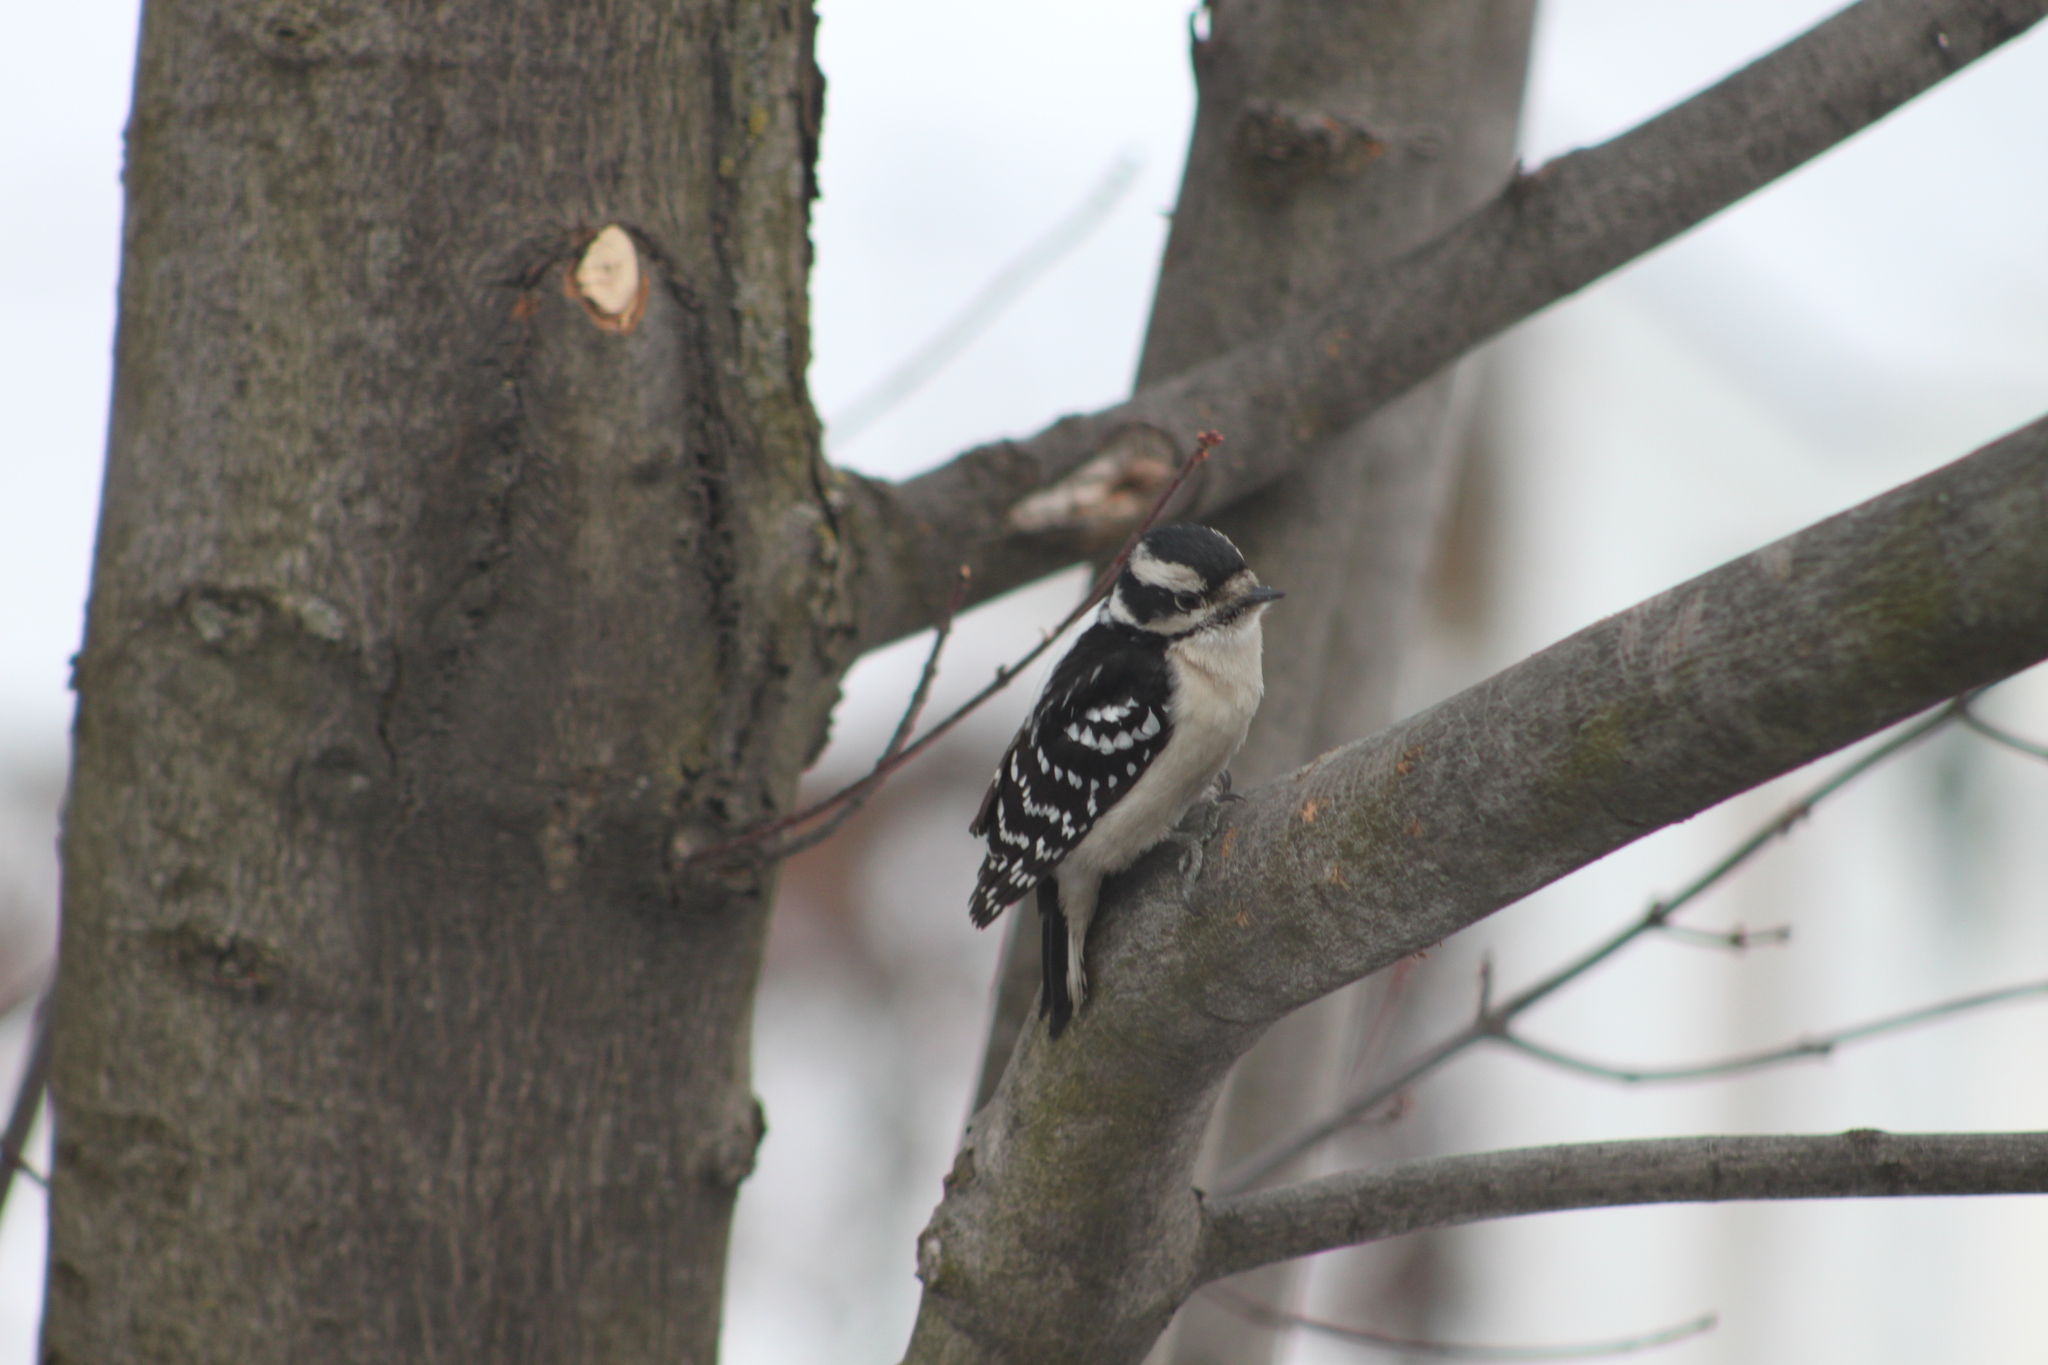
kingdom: Animalia
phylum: Chordata
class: Aves
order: Piciformes
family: Picidae
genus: Dryobates
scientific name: Dryobates pubescens
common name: Downy woodpecker
